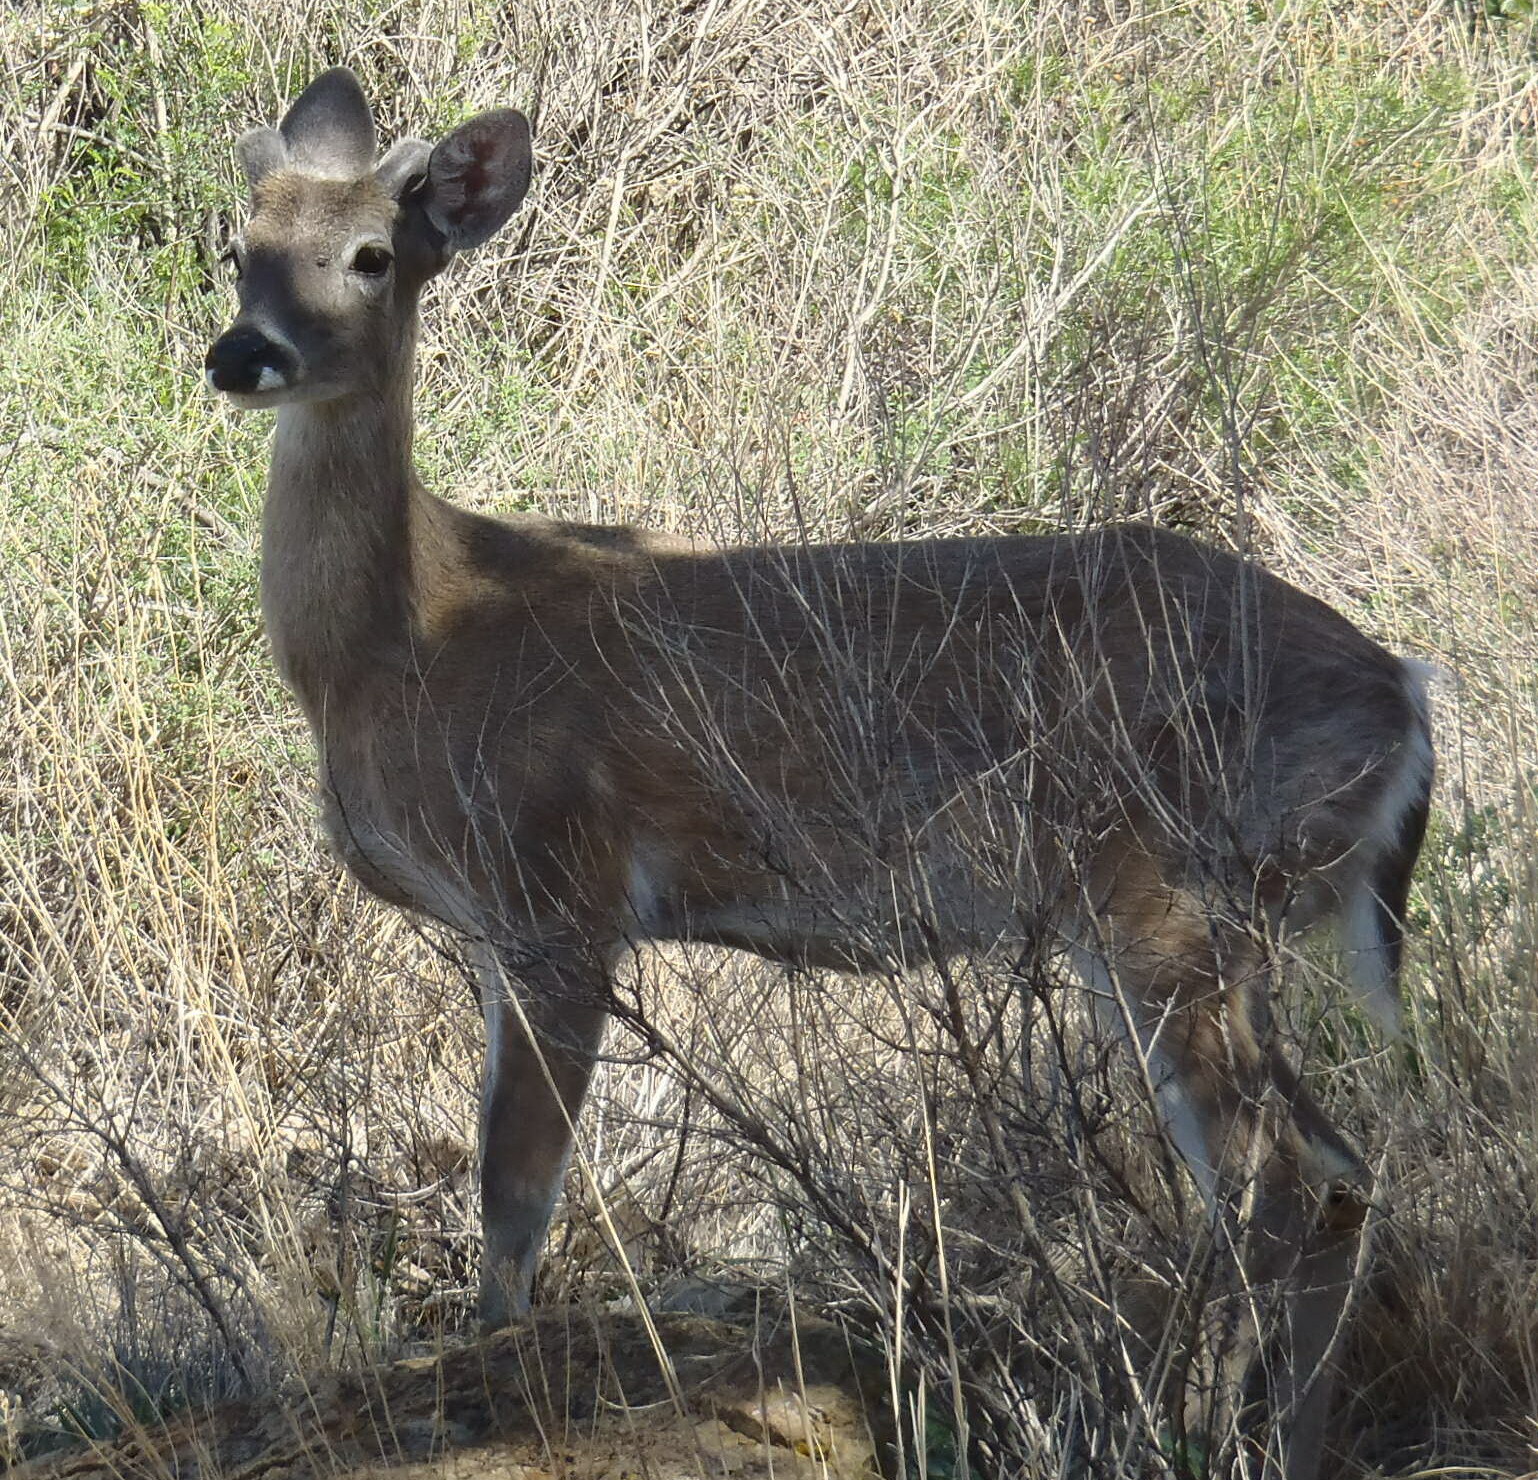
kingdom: Animalia
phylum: Chordata
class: Mammalia
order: Artiodactyla
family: Cervidae
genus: Odocoileus
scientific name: Odocoileus virginianus
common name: White-tailed deer
